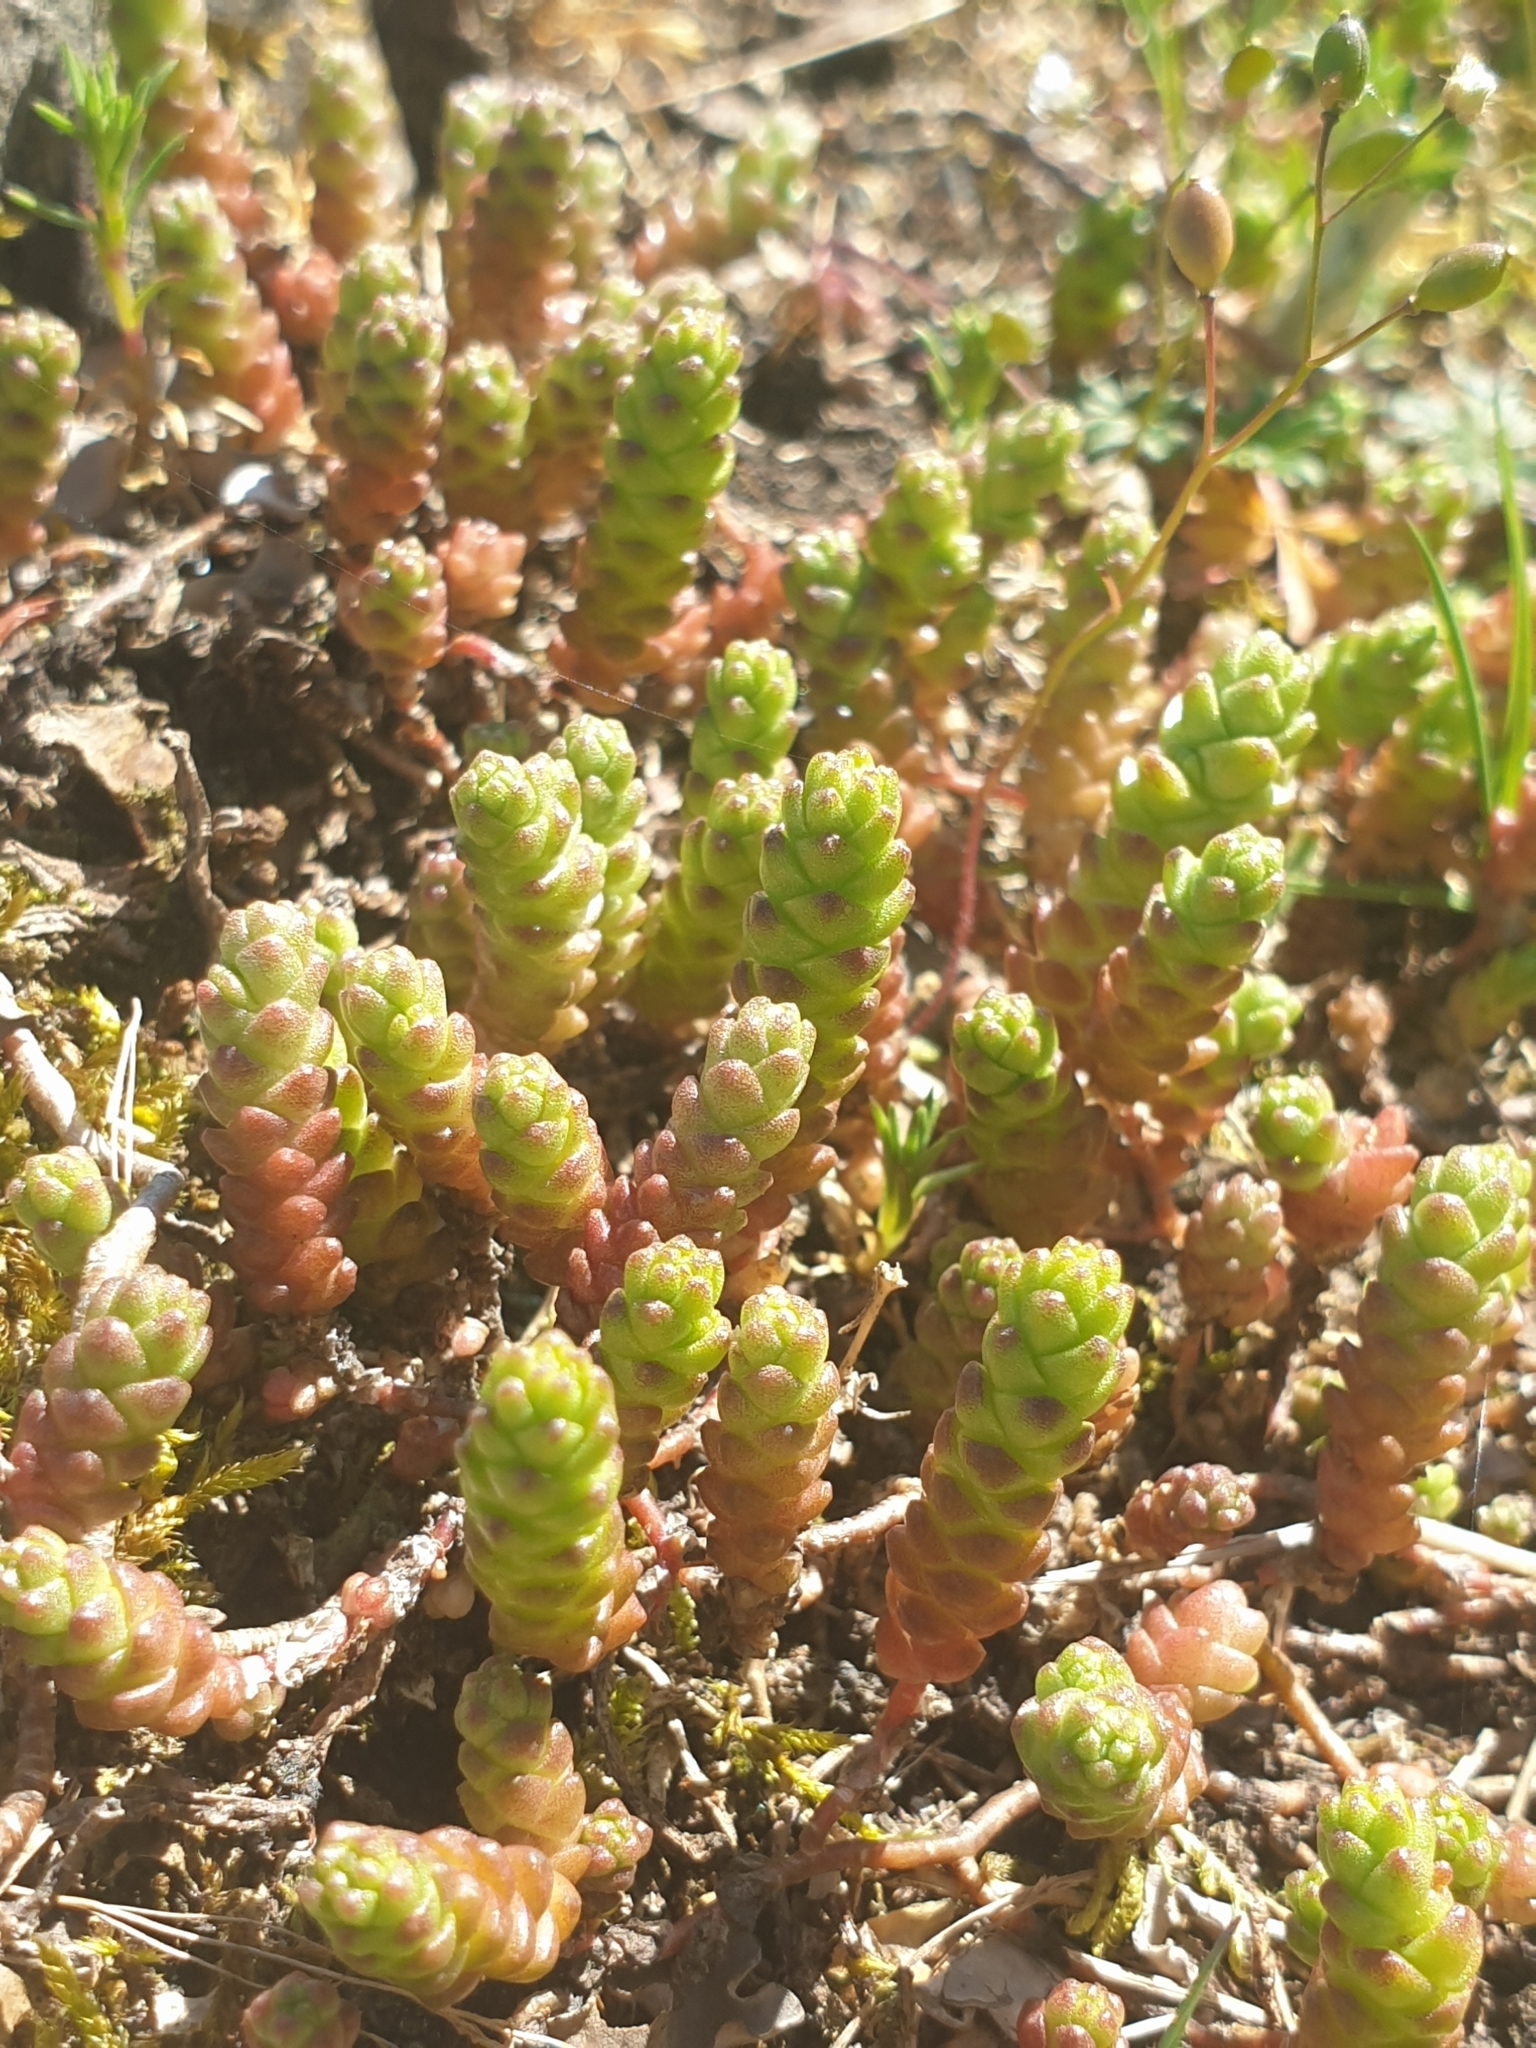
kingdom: Plantae
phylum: Tracheophyta
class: Magnoliopsida
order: Saxifragales
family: Crassulaceae
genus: Sedum
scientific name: Sedum acre
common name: Biting stonecrop
